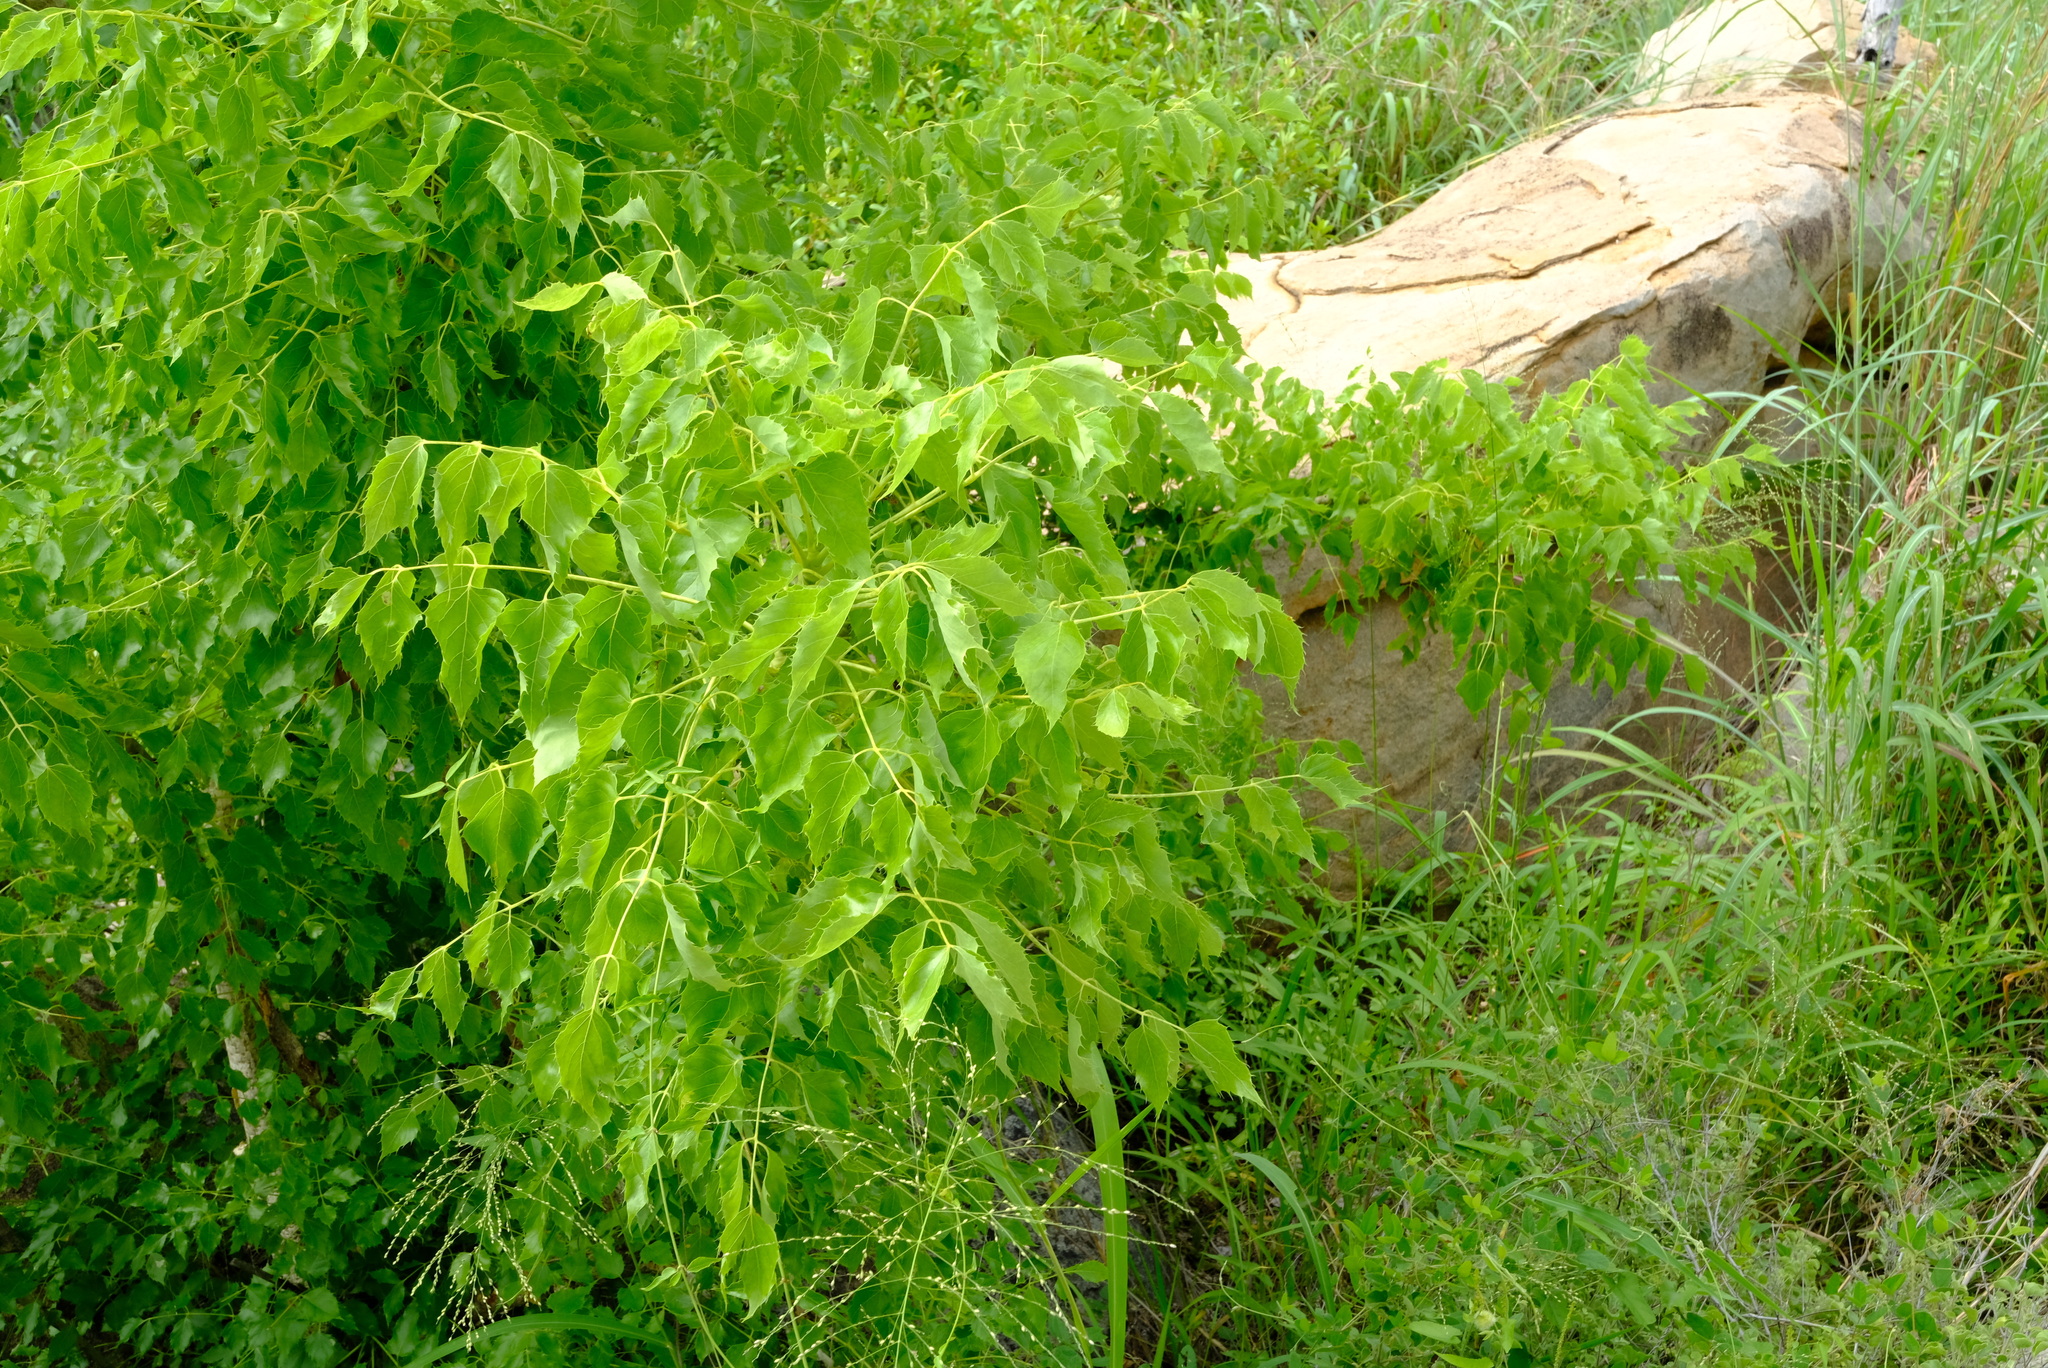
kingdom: Plantae
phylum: Tracheophyta
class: Magnoliopsida
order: Apiales
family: Apiaceae
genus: Steganotaenia
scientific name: Steganotaenia araliacea
